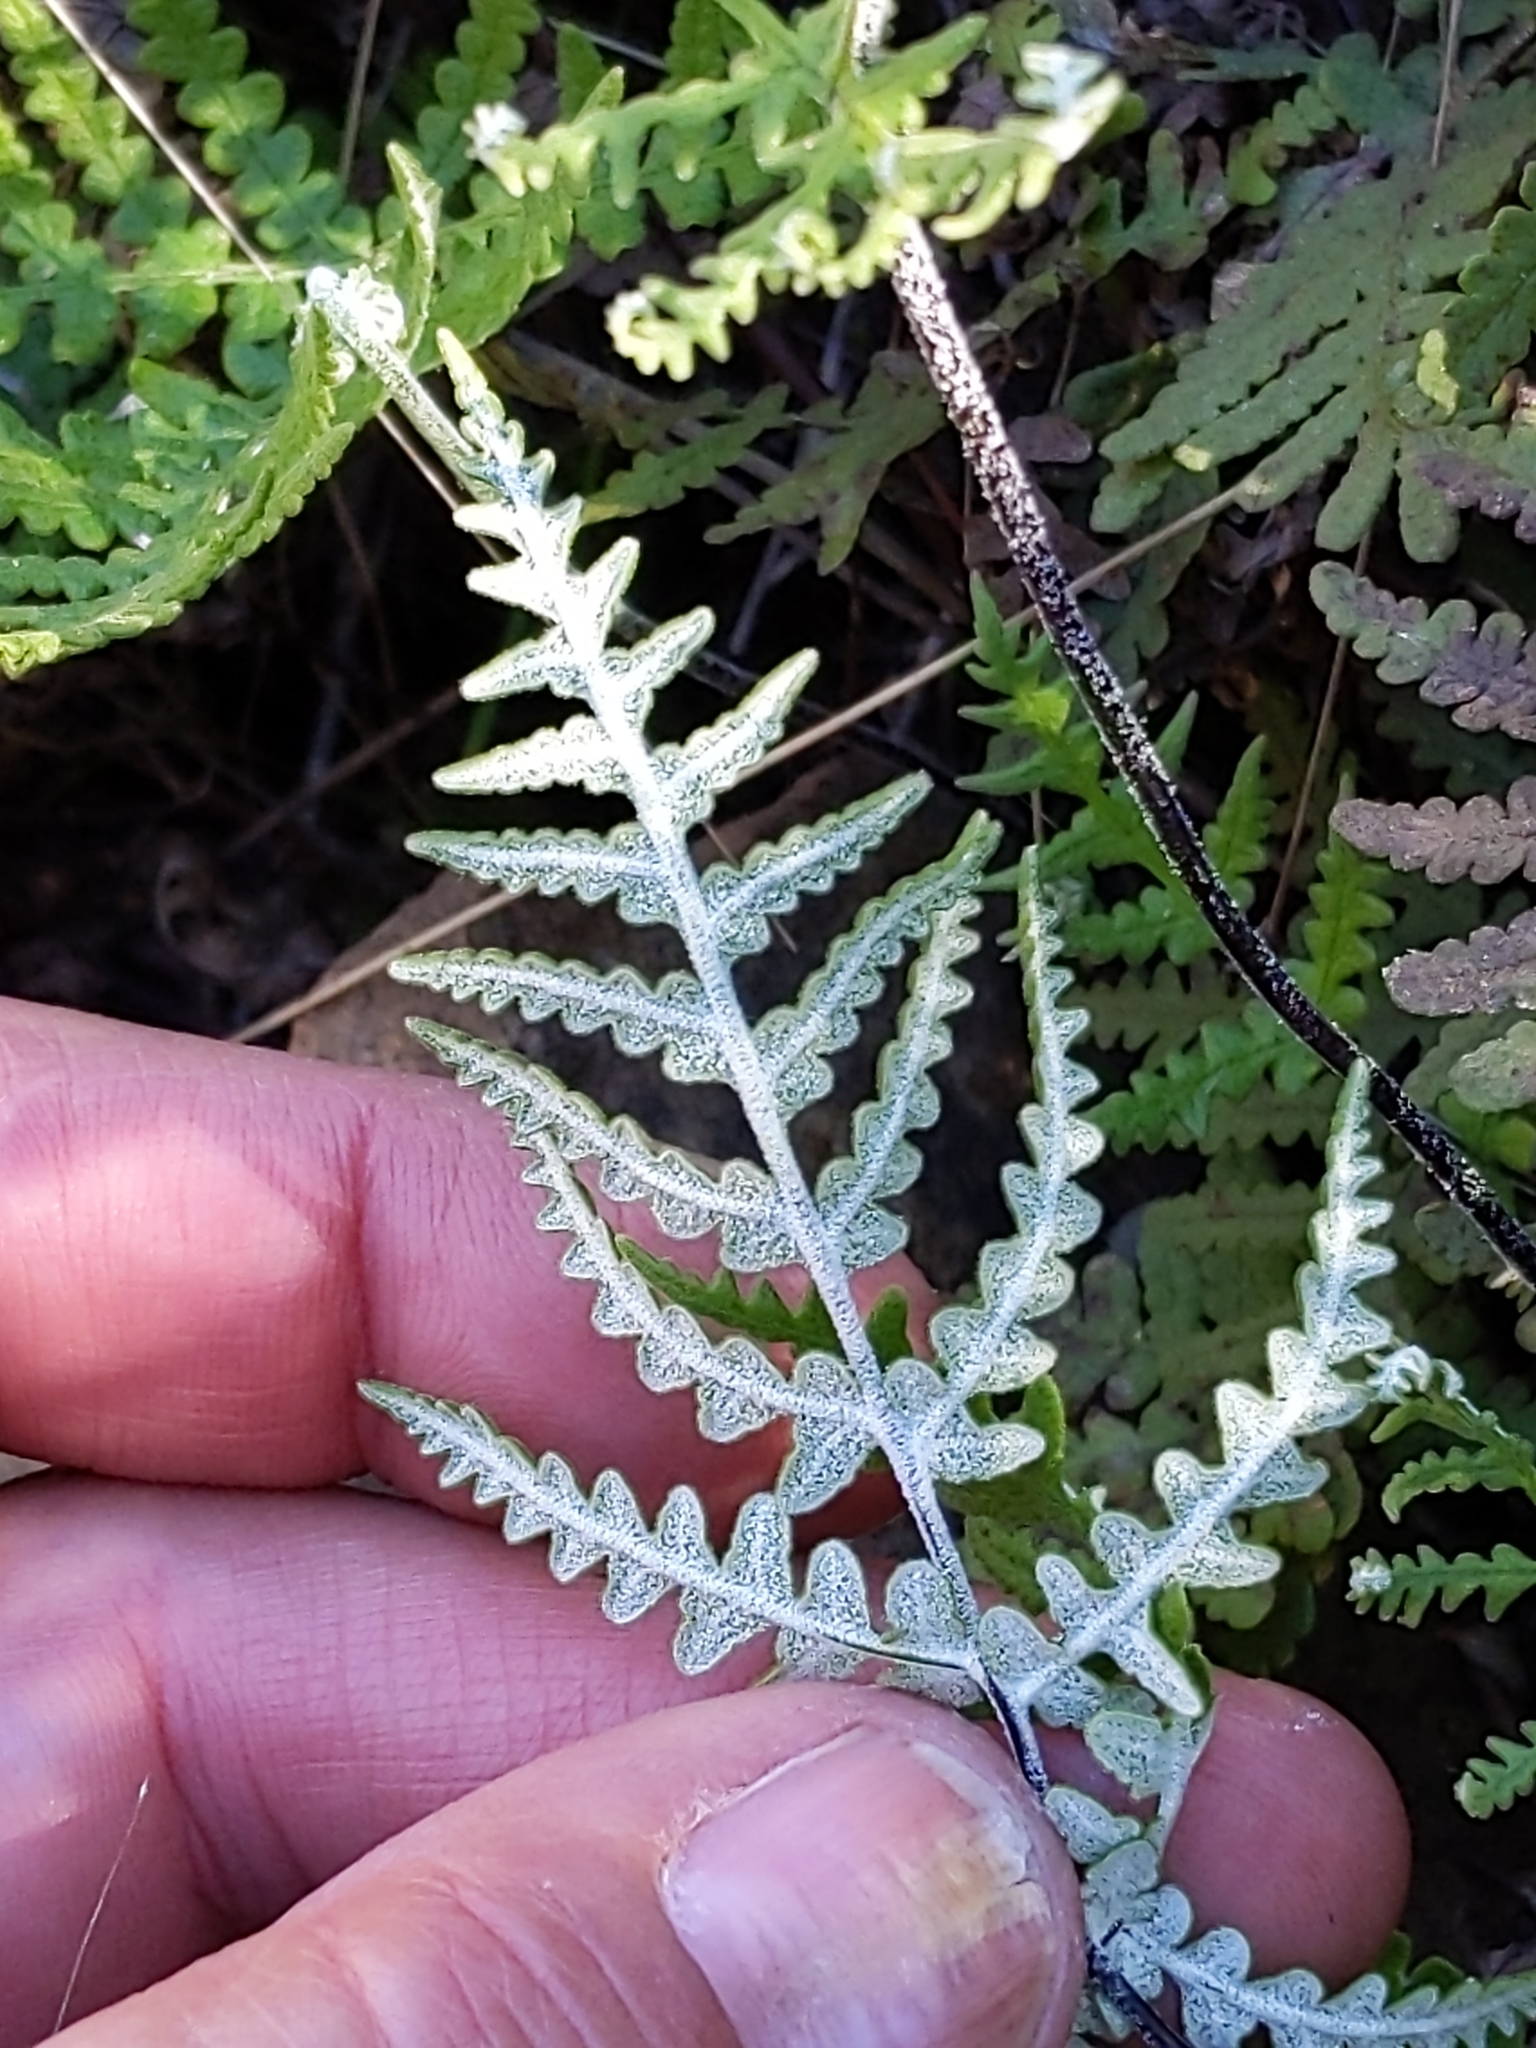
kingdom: Plantae
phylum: Tracheophyta
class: Polypodiopsida
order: Polypodiales
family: Pteridaceae
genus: Pentagramma
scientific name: Pentagramma glanduloviscida
